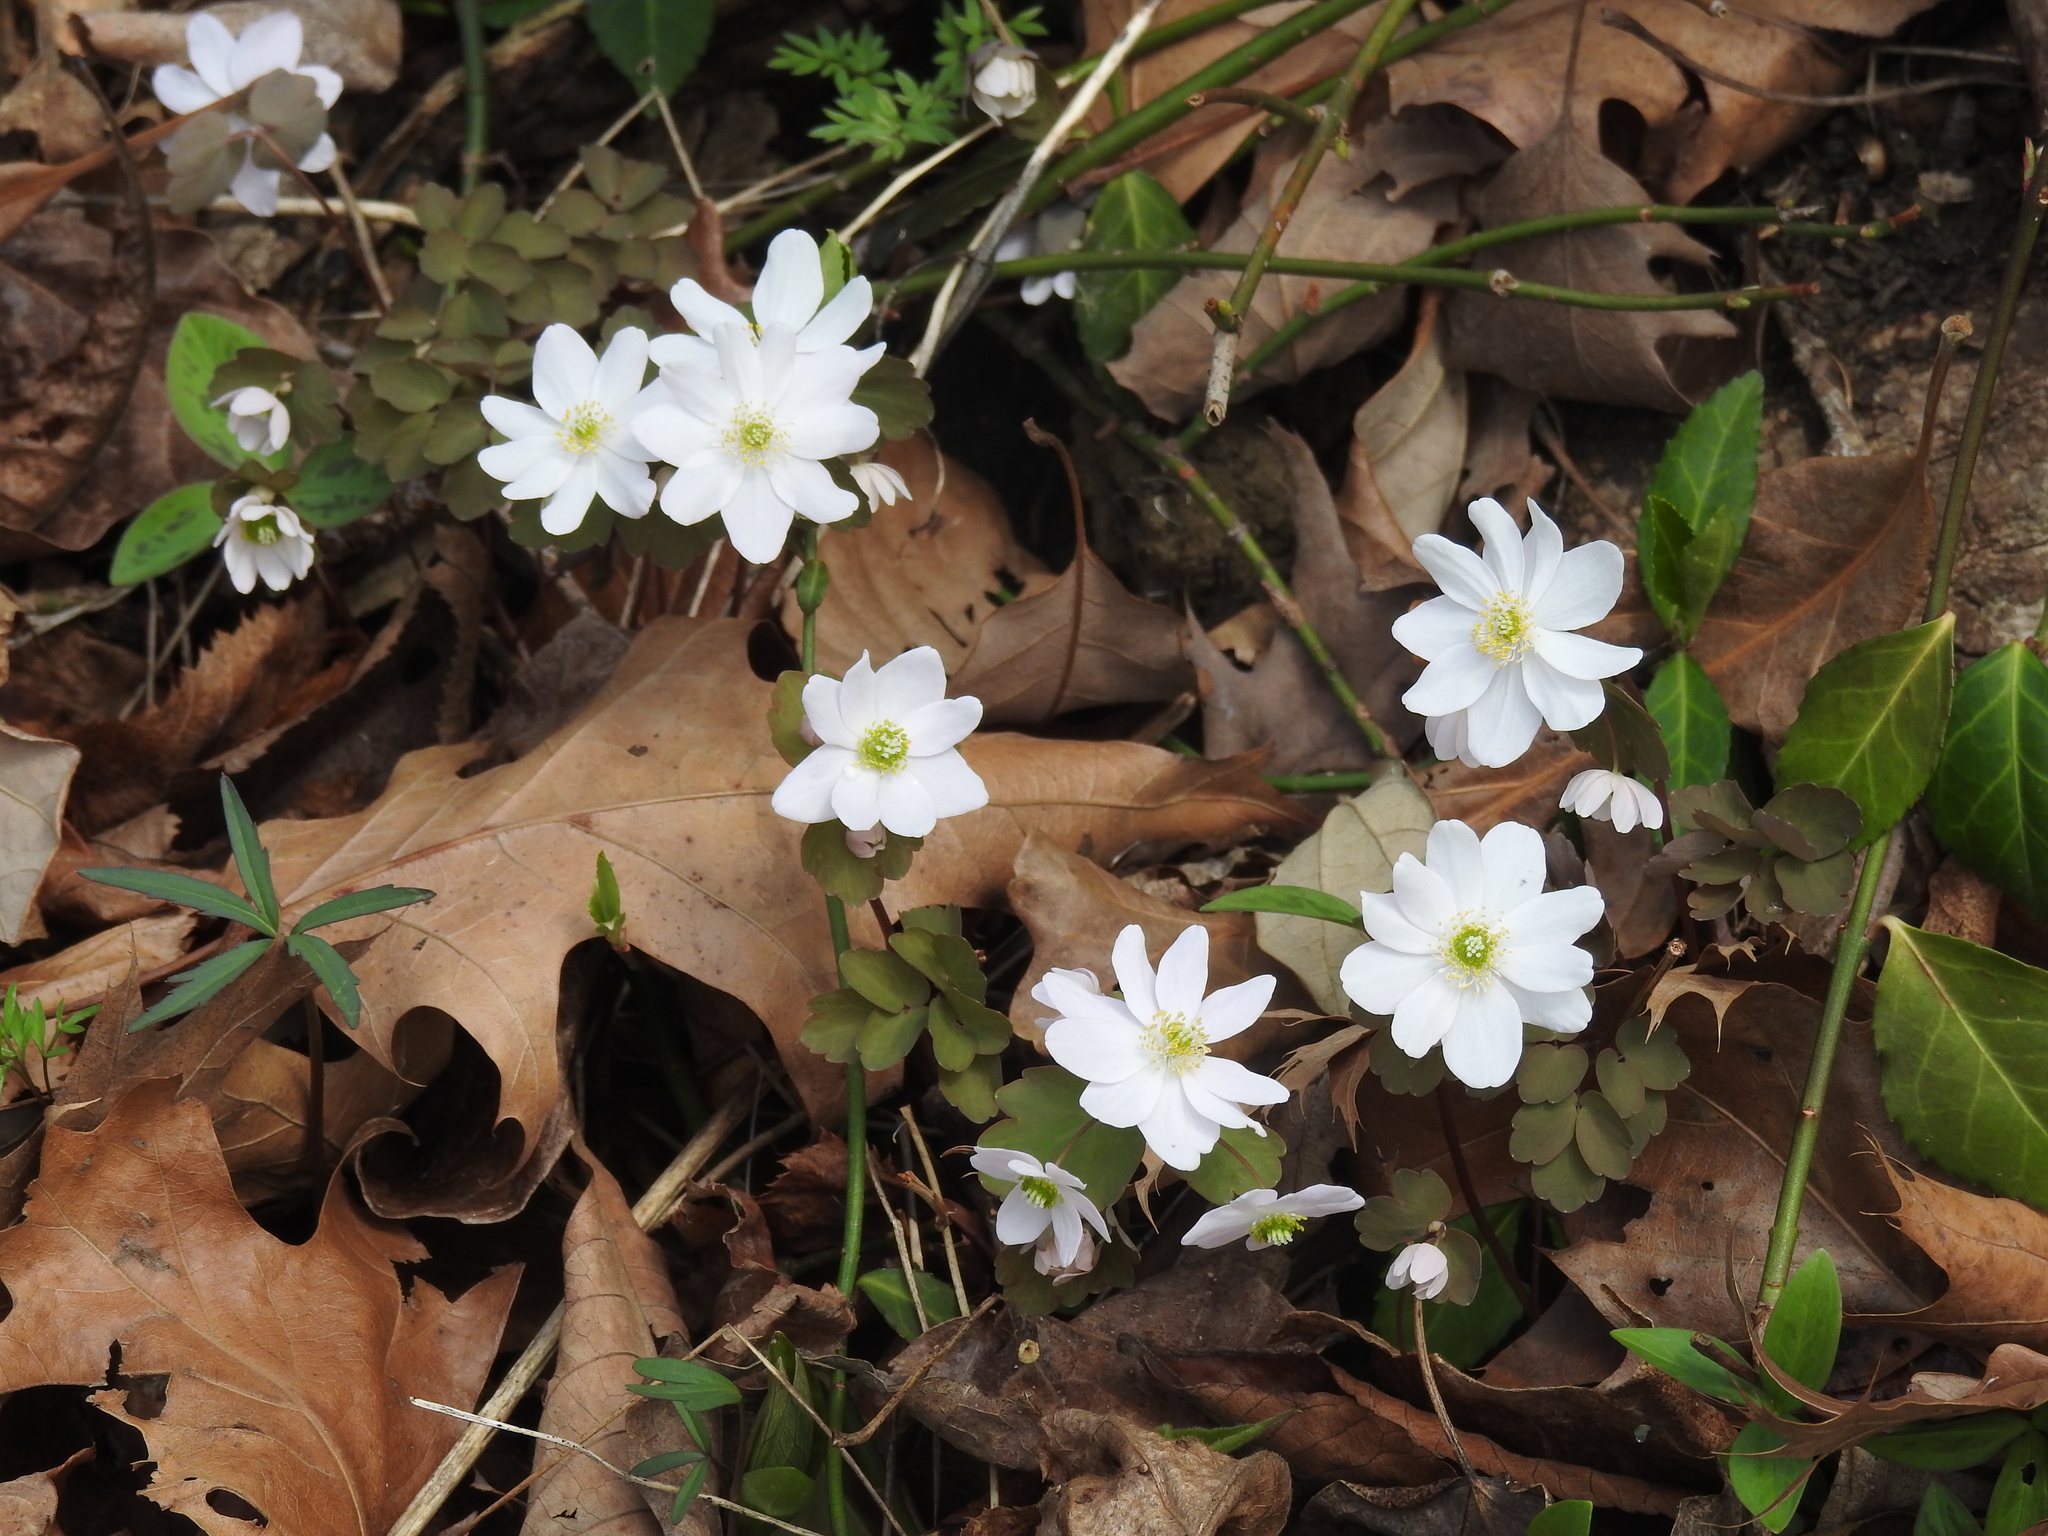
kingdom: Plantae
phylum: Tracheophyta
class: Magnoliopsida
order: Ranunculales
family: Ranunculaceae
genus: Thalictrum
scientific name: Thalictrum thalictroides
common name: Rue-anemone
